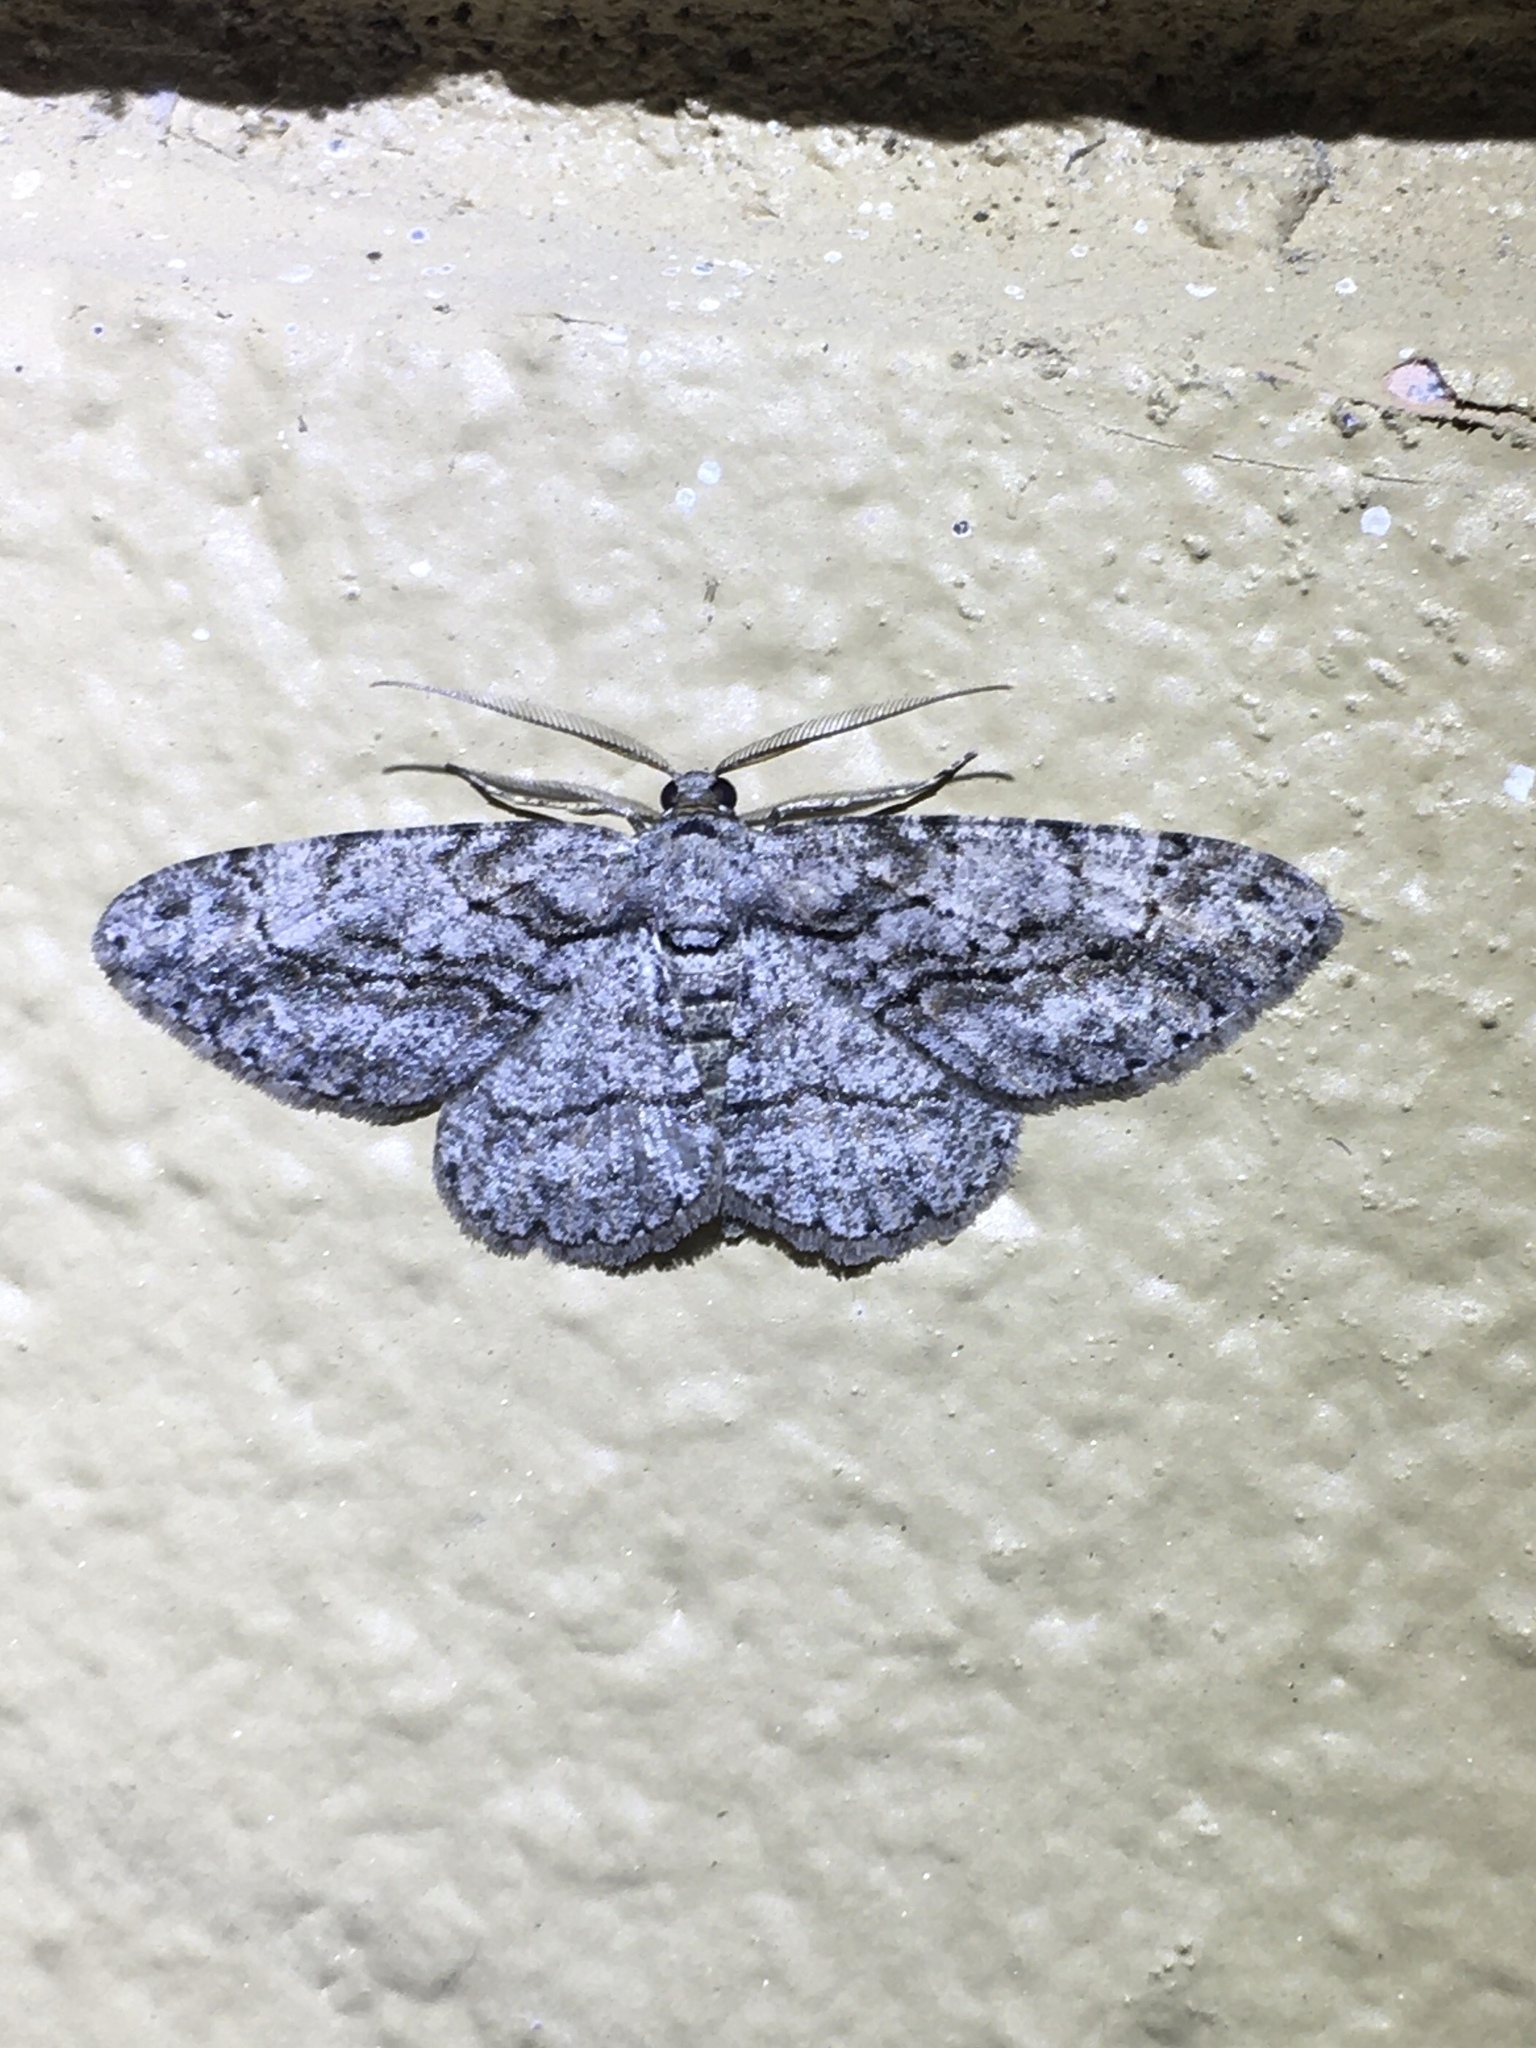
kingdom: Animalia
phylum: Arthropoda
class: Insecta
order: Lepidoptera
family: Geometridae
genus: Anavitrinella
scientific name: Anavitrinella pampinaria
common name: Common gray
